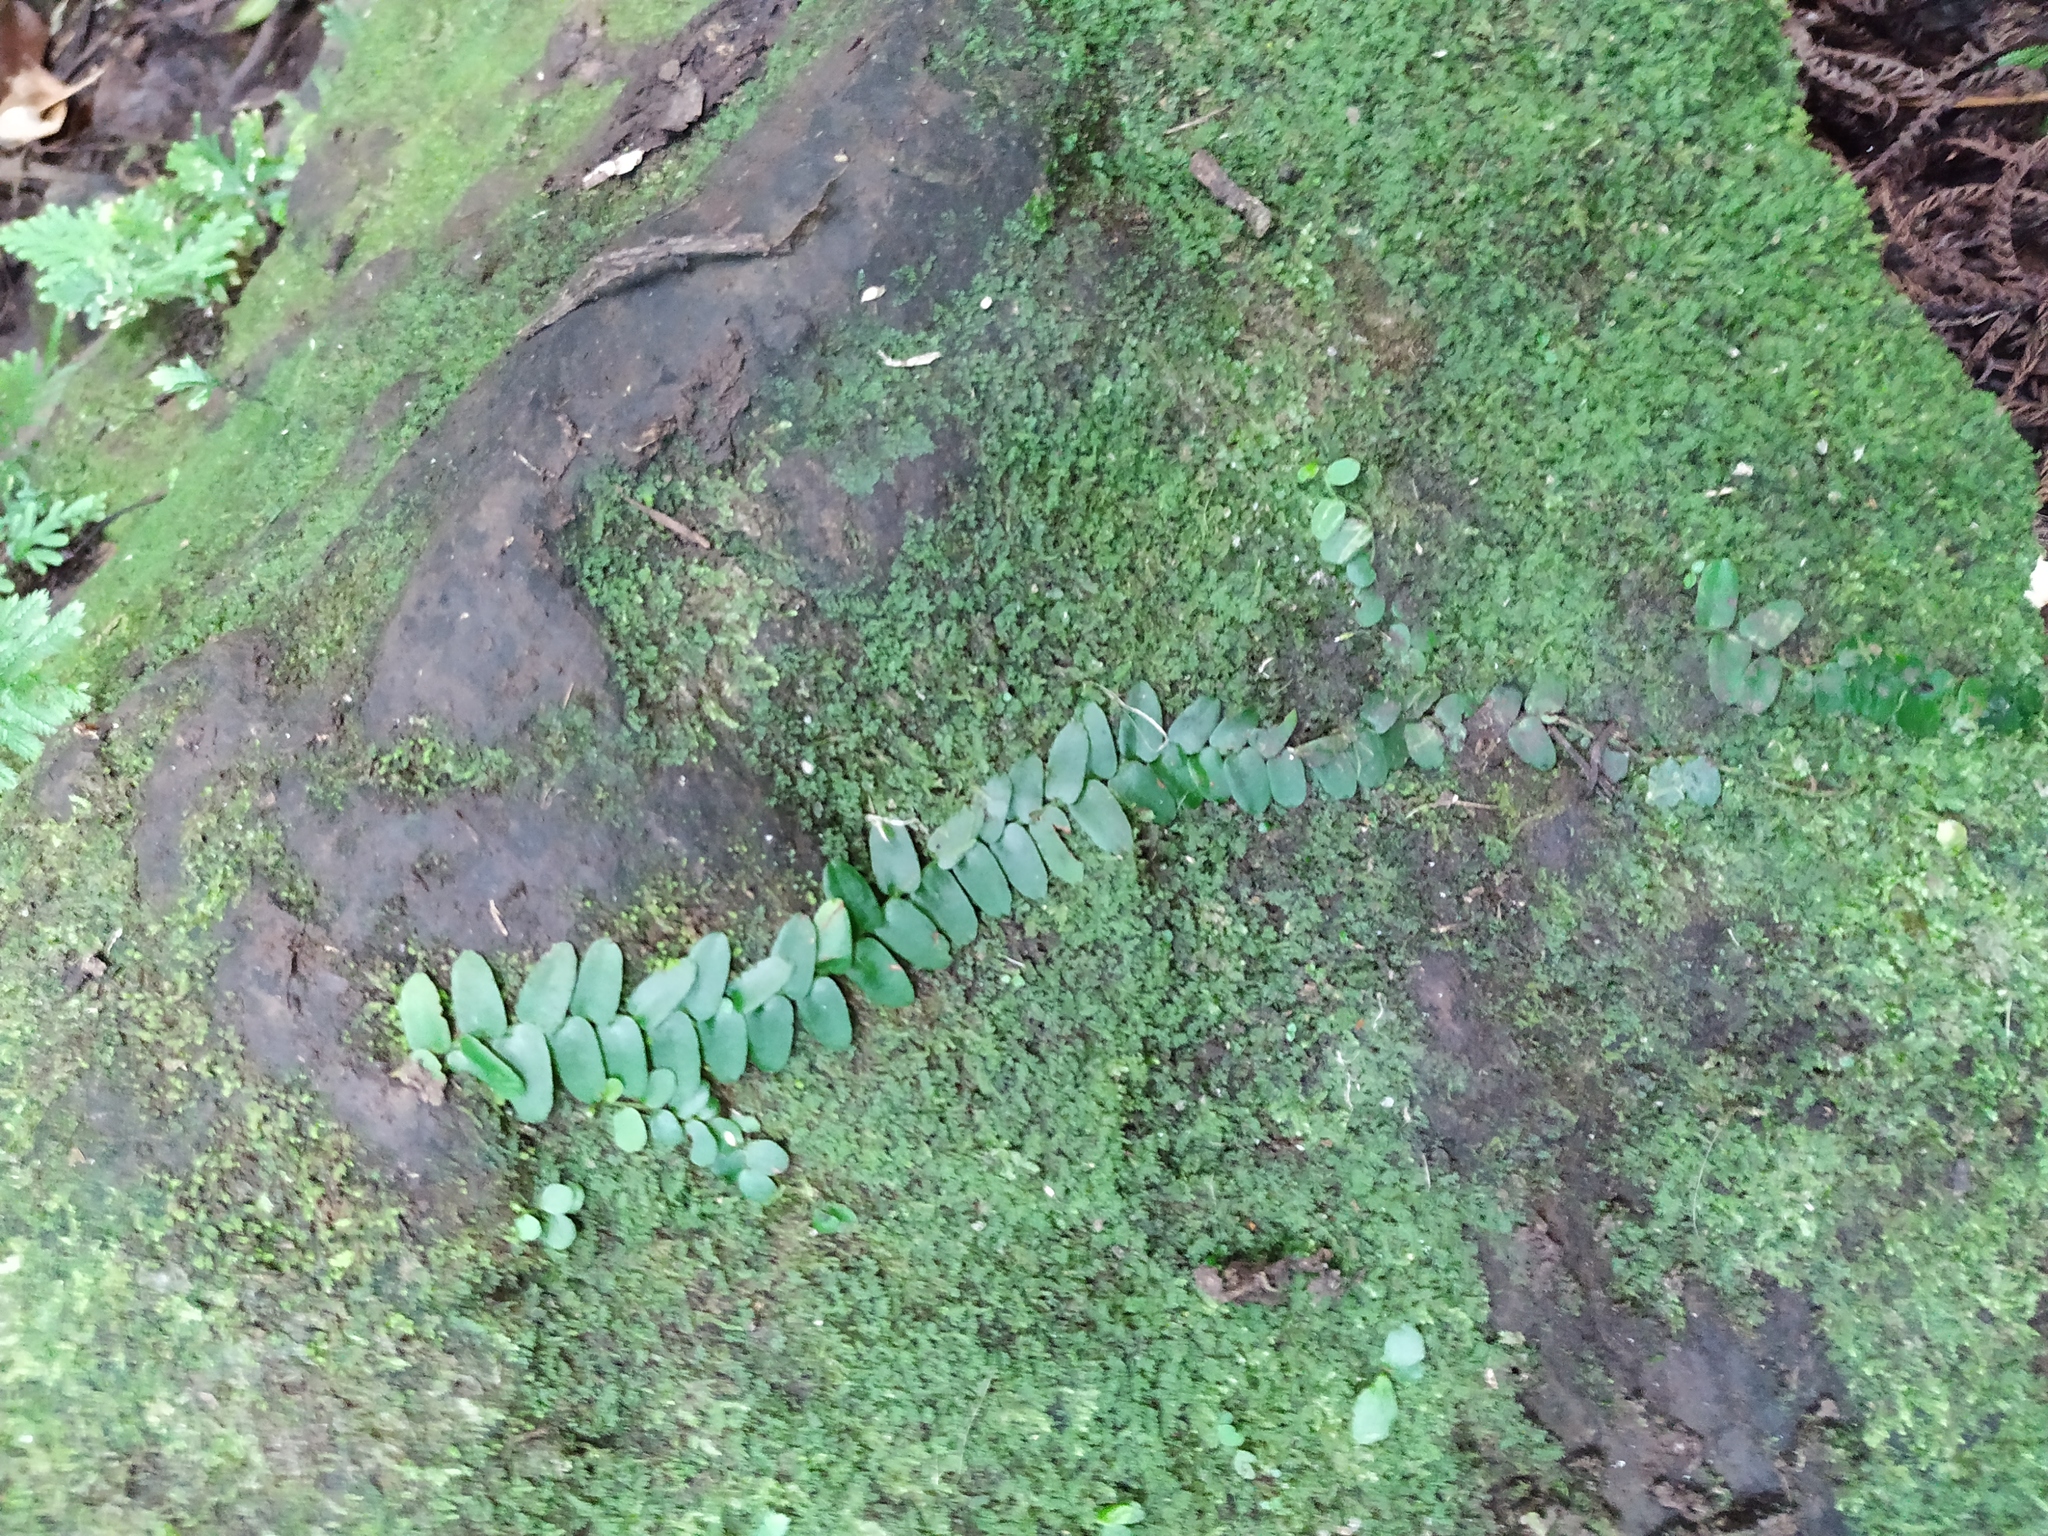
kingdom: Plantae
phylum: Tracheophyta
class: Magnoliopsida
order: Ericales
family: Marcgraviaceae
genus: Marcgravia
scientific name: Marcgravia umbellata
